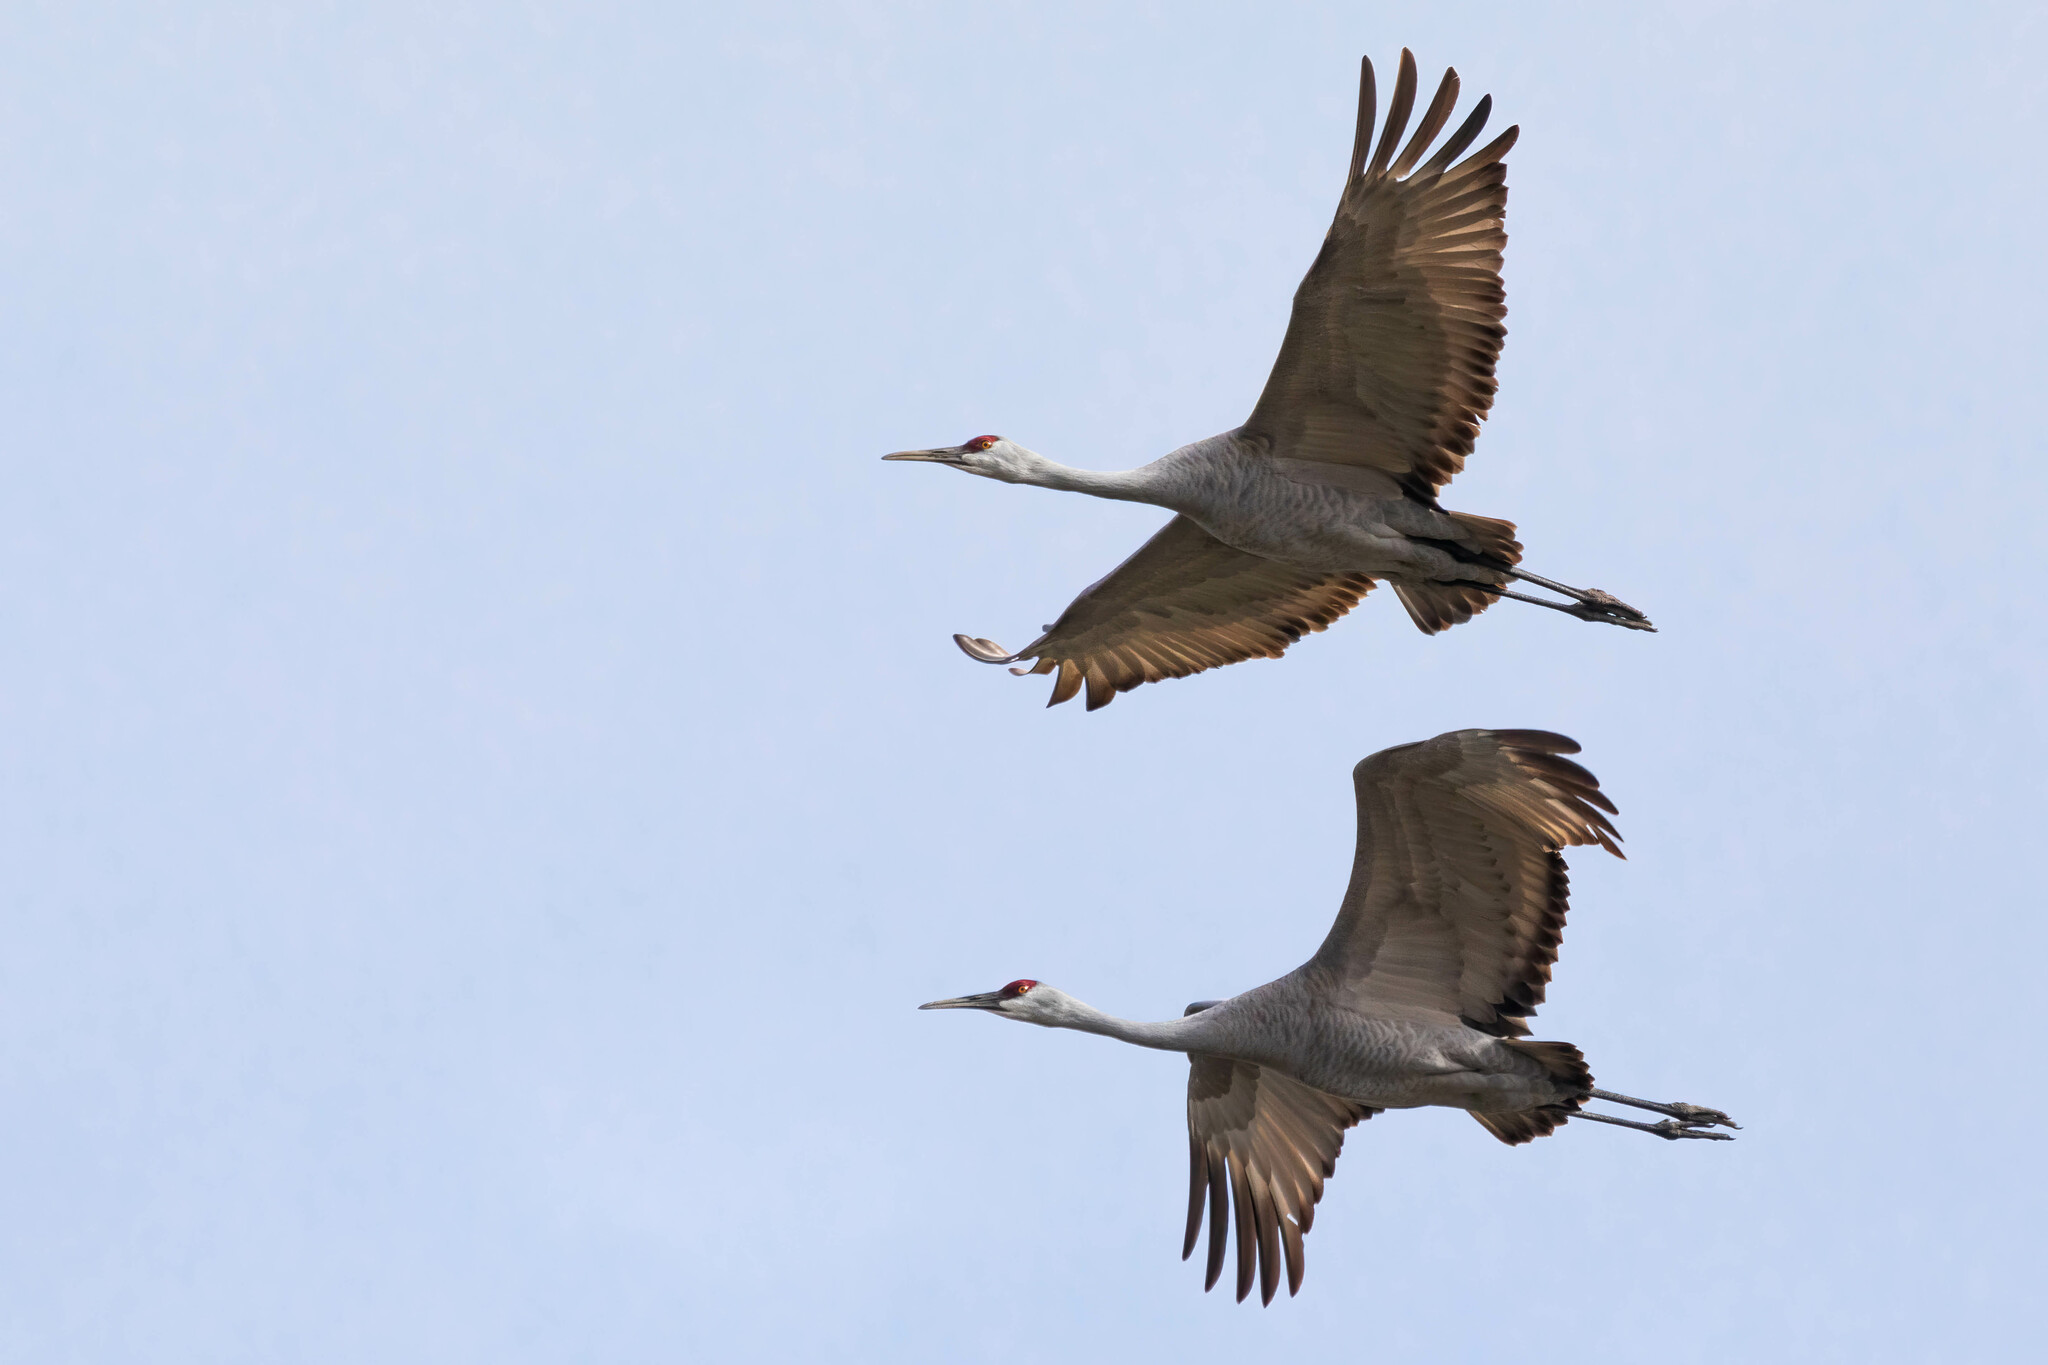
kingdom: Animalia
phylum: Chordata
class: Aves
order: Gruiformes
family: Gruidae
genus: Grus
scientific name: Grus canadensis
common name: Sandhill crane
